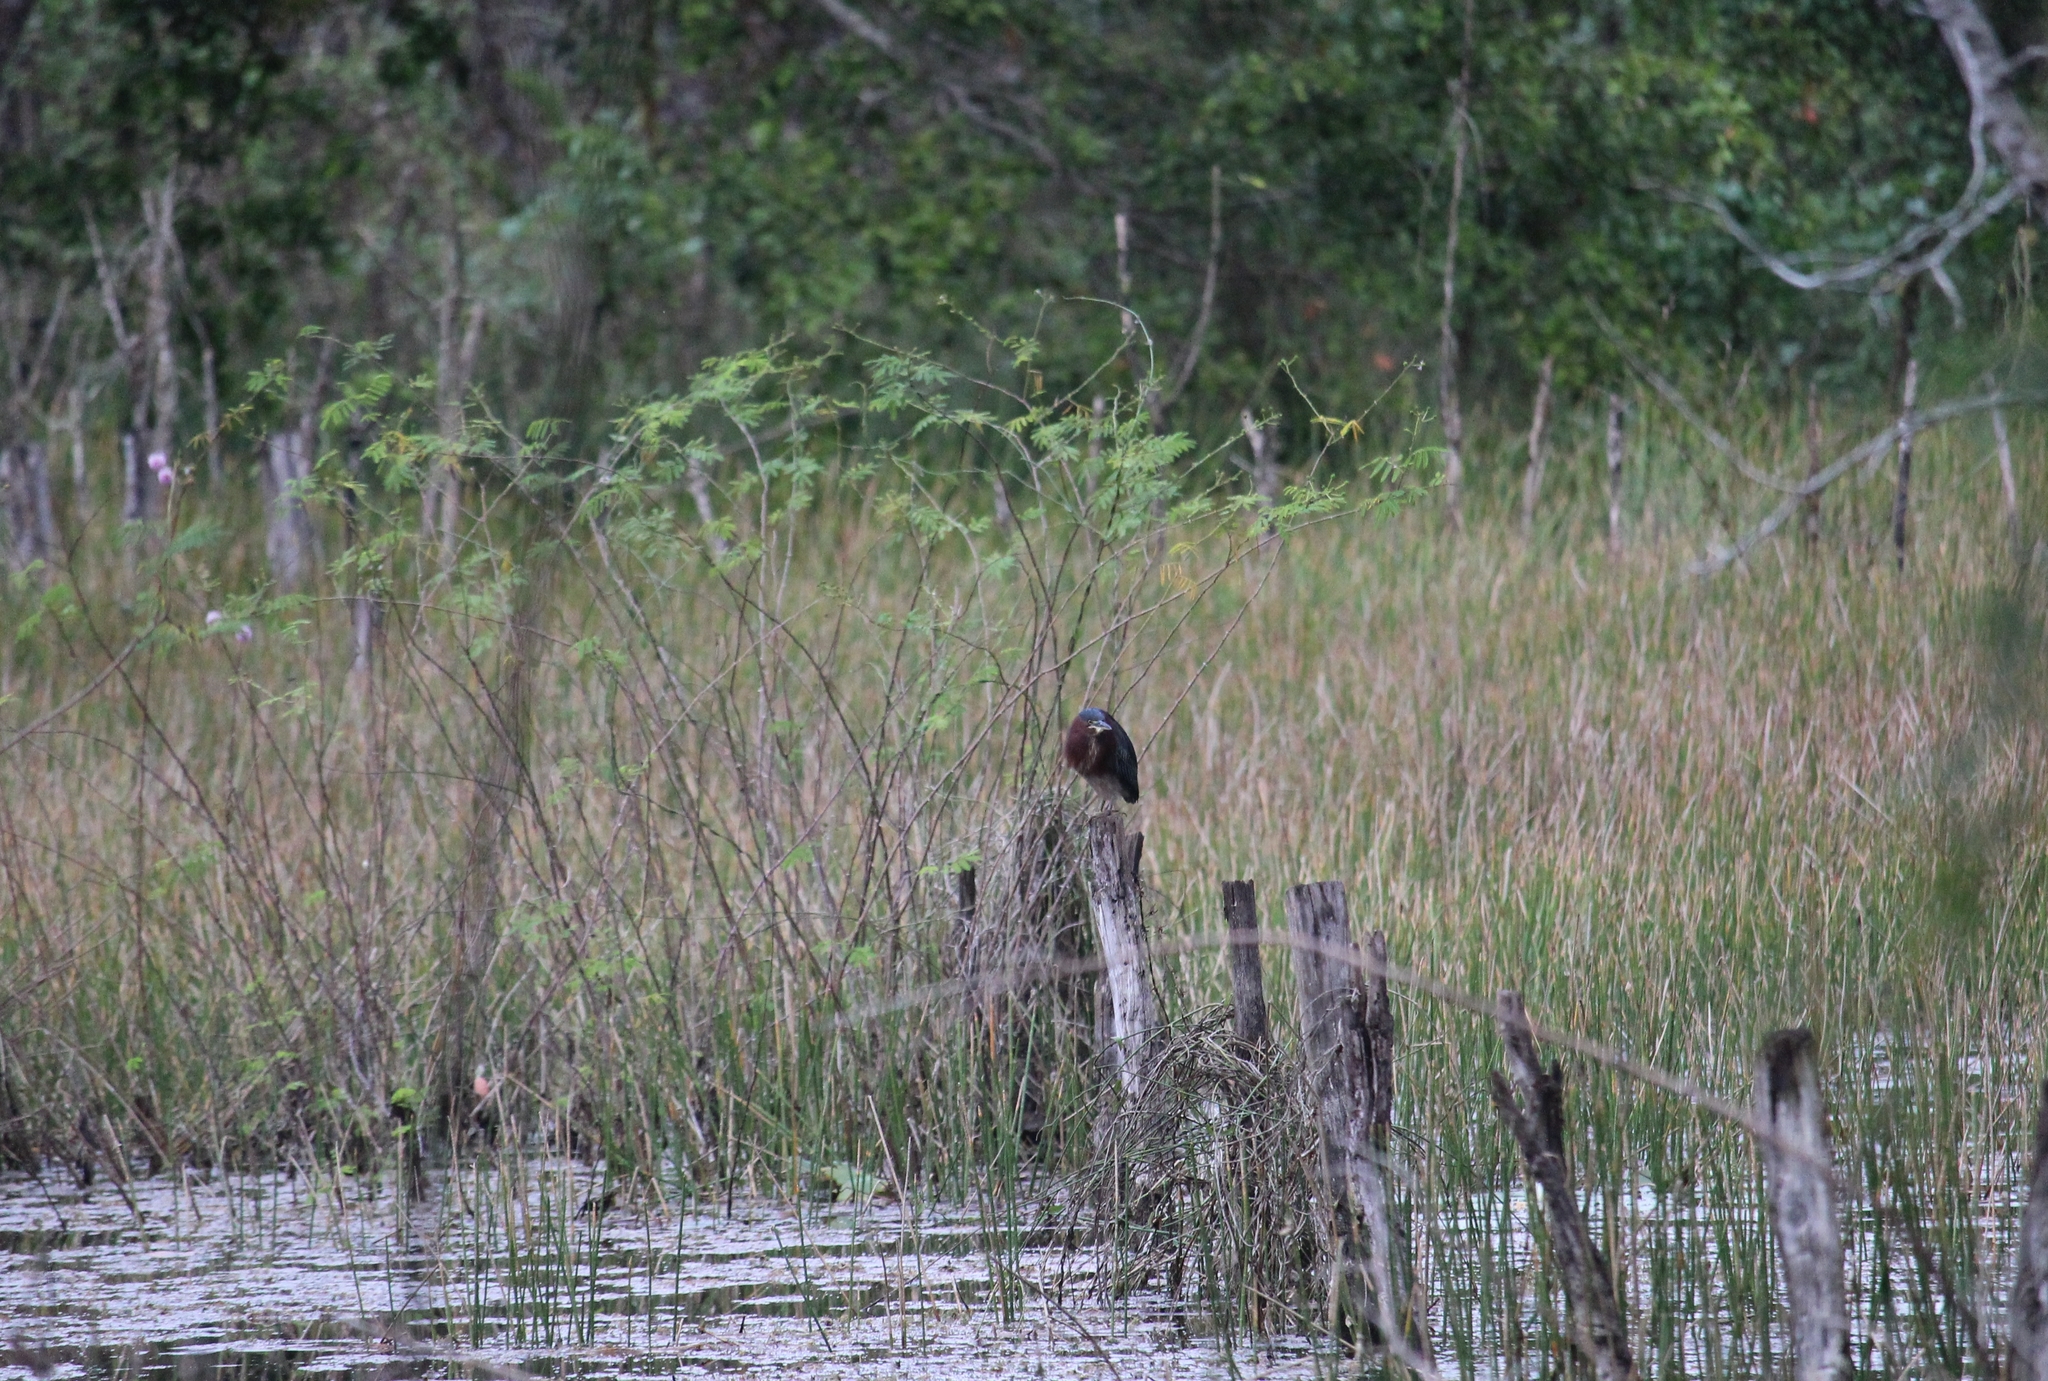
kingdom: Animalia
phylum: Chordata
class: Aves
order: Pelecaniformes
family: Ardeidae
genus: Butorides
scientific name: Butorides virescens
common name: Green heron
